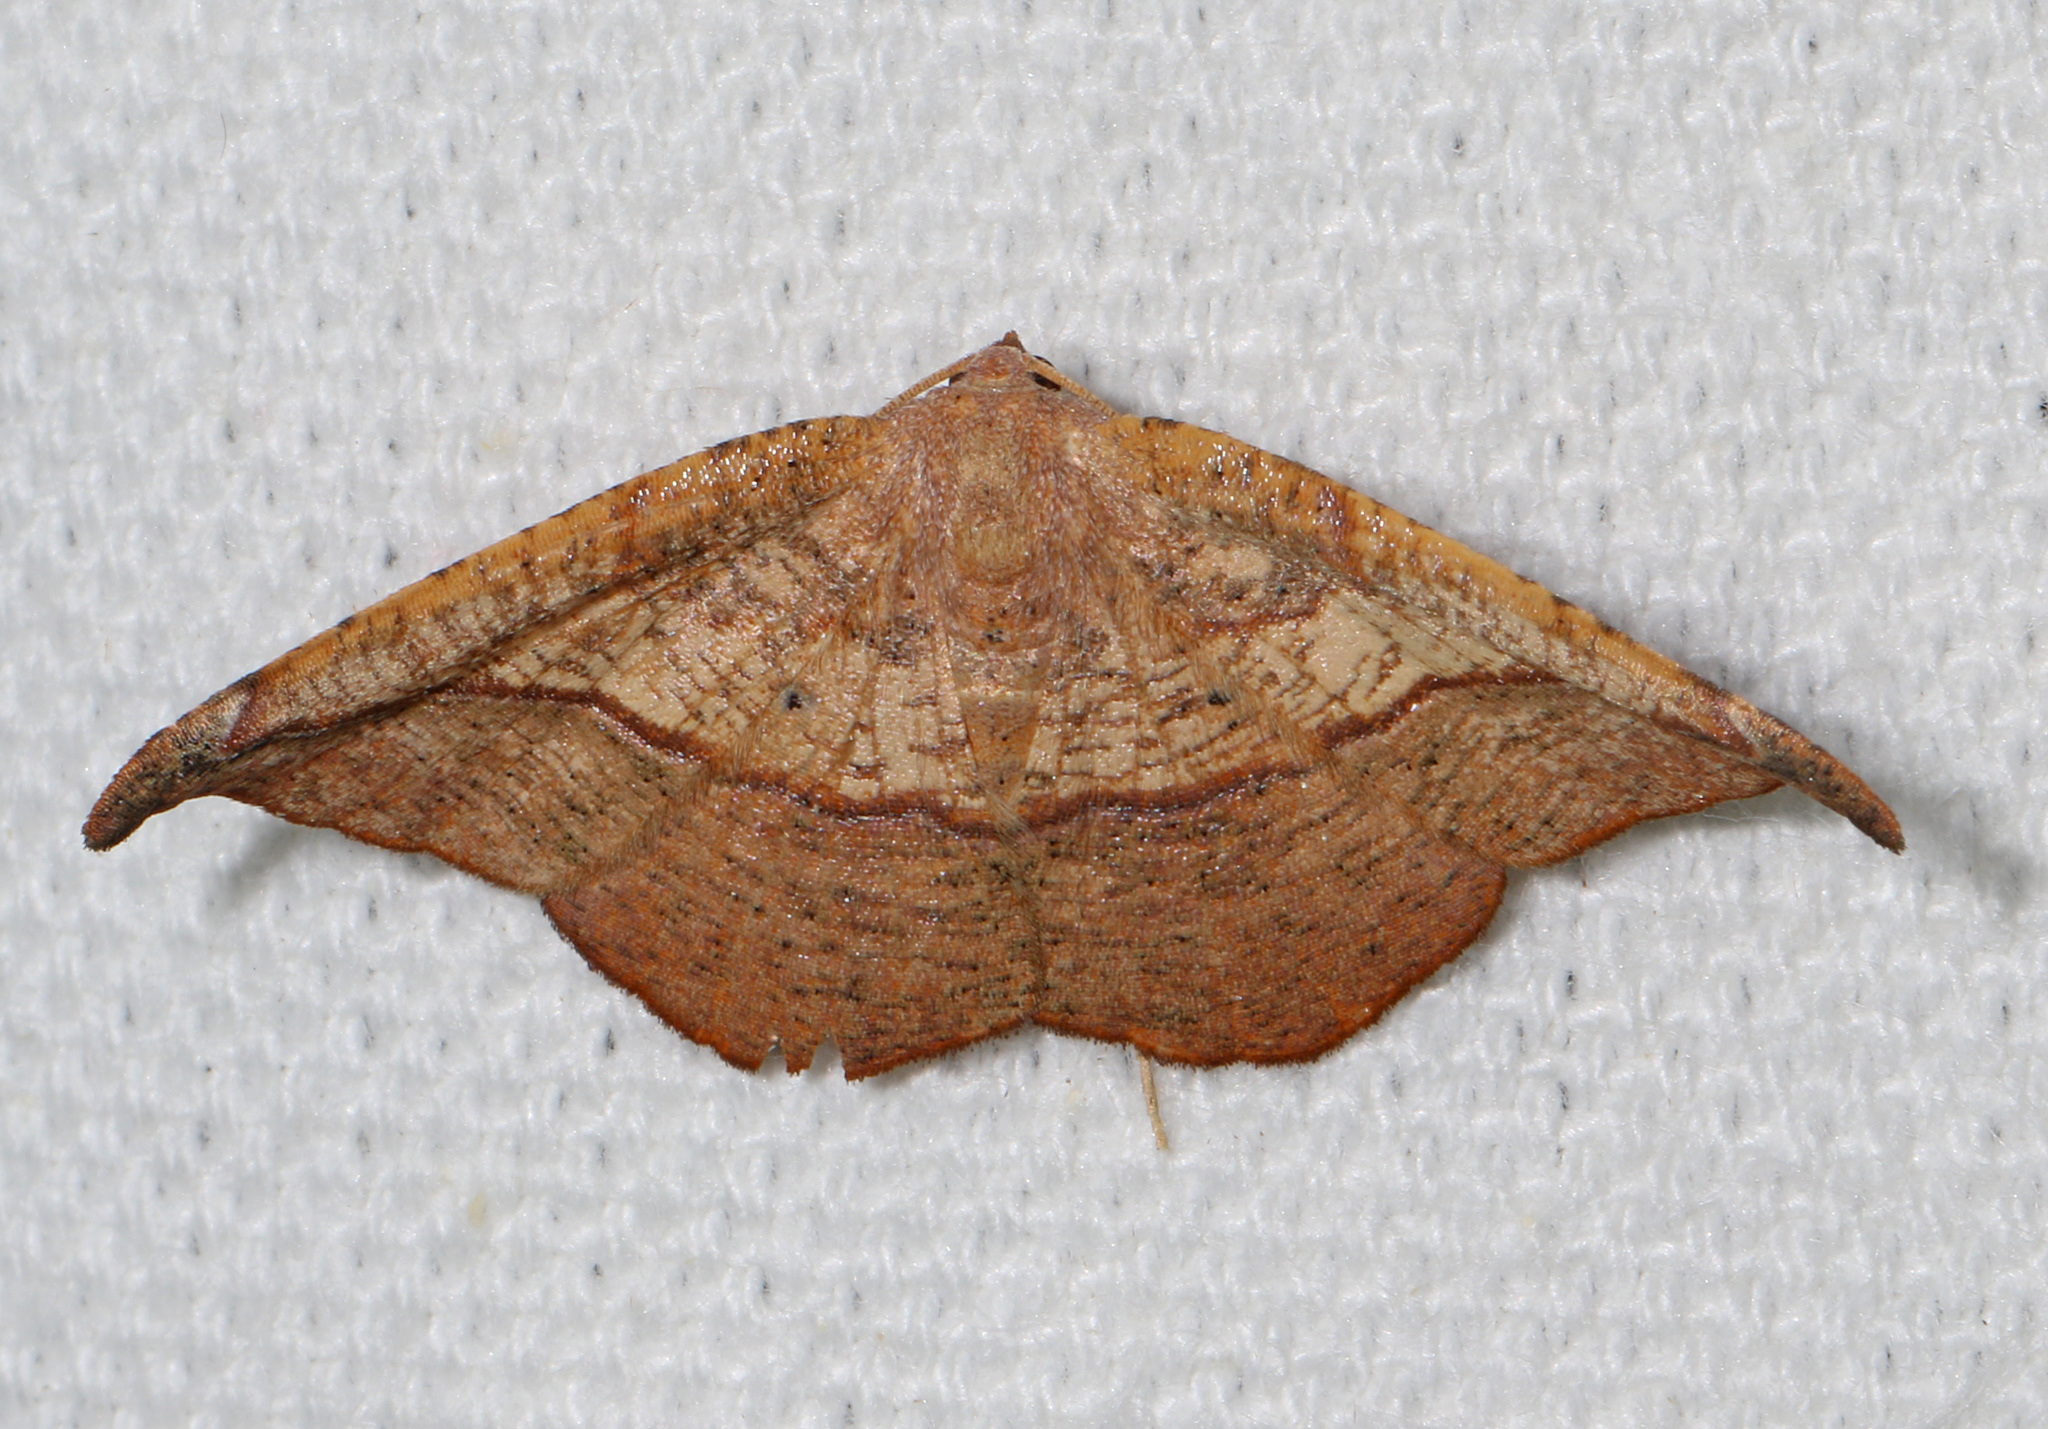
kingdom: Animalia
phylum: Arthropoda
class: Insecta
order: Lepidoptera
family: Geometridae
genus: Patalene
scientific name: Patalene olyzonaria
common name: Juniper geometer moth
